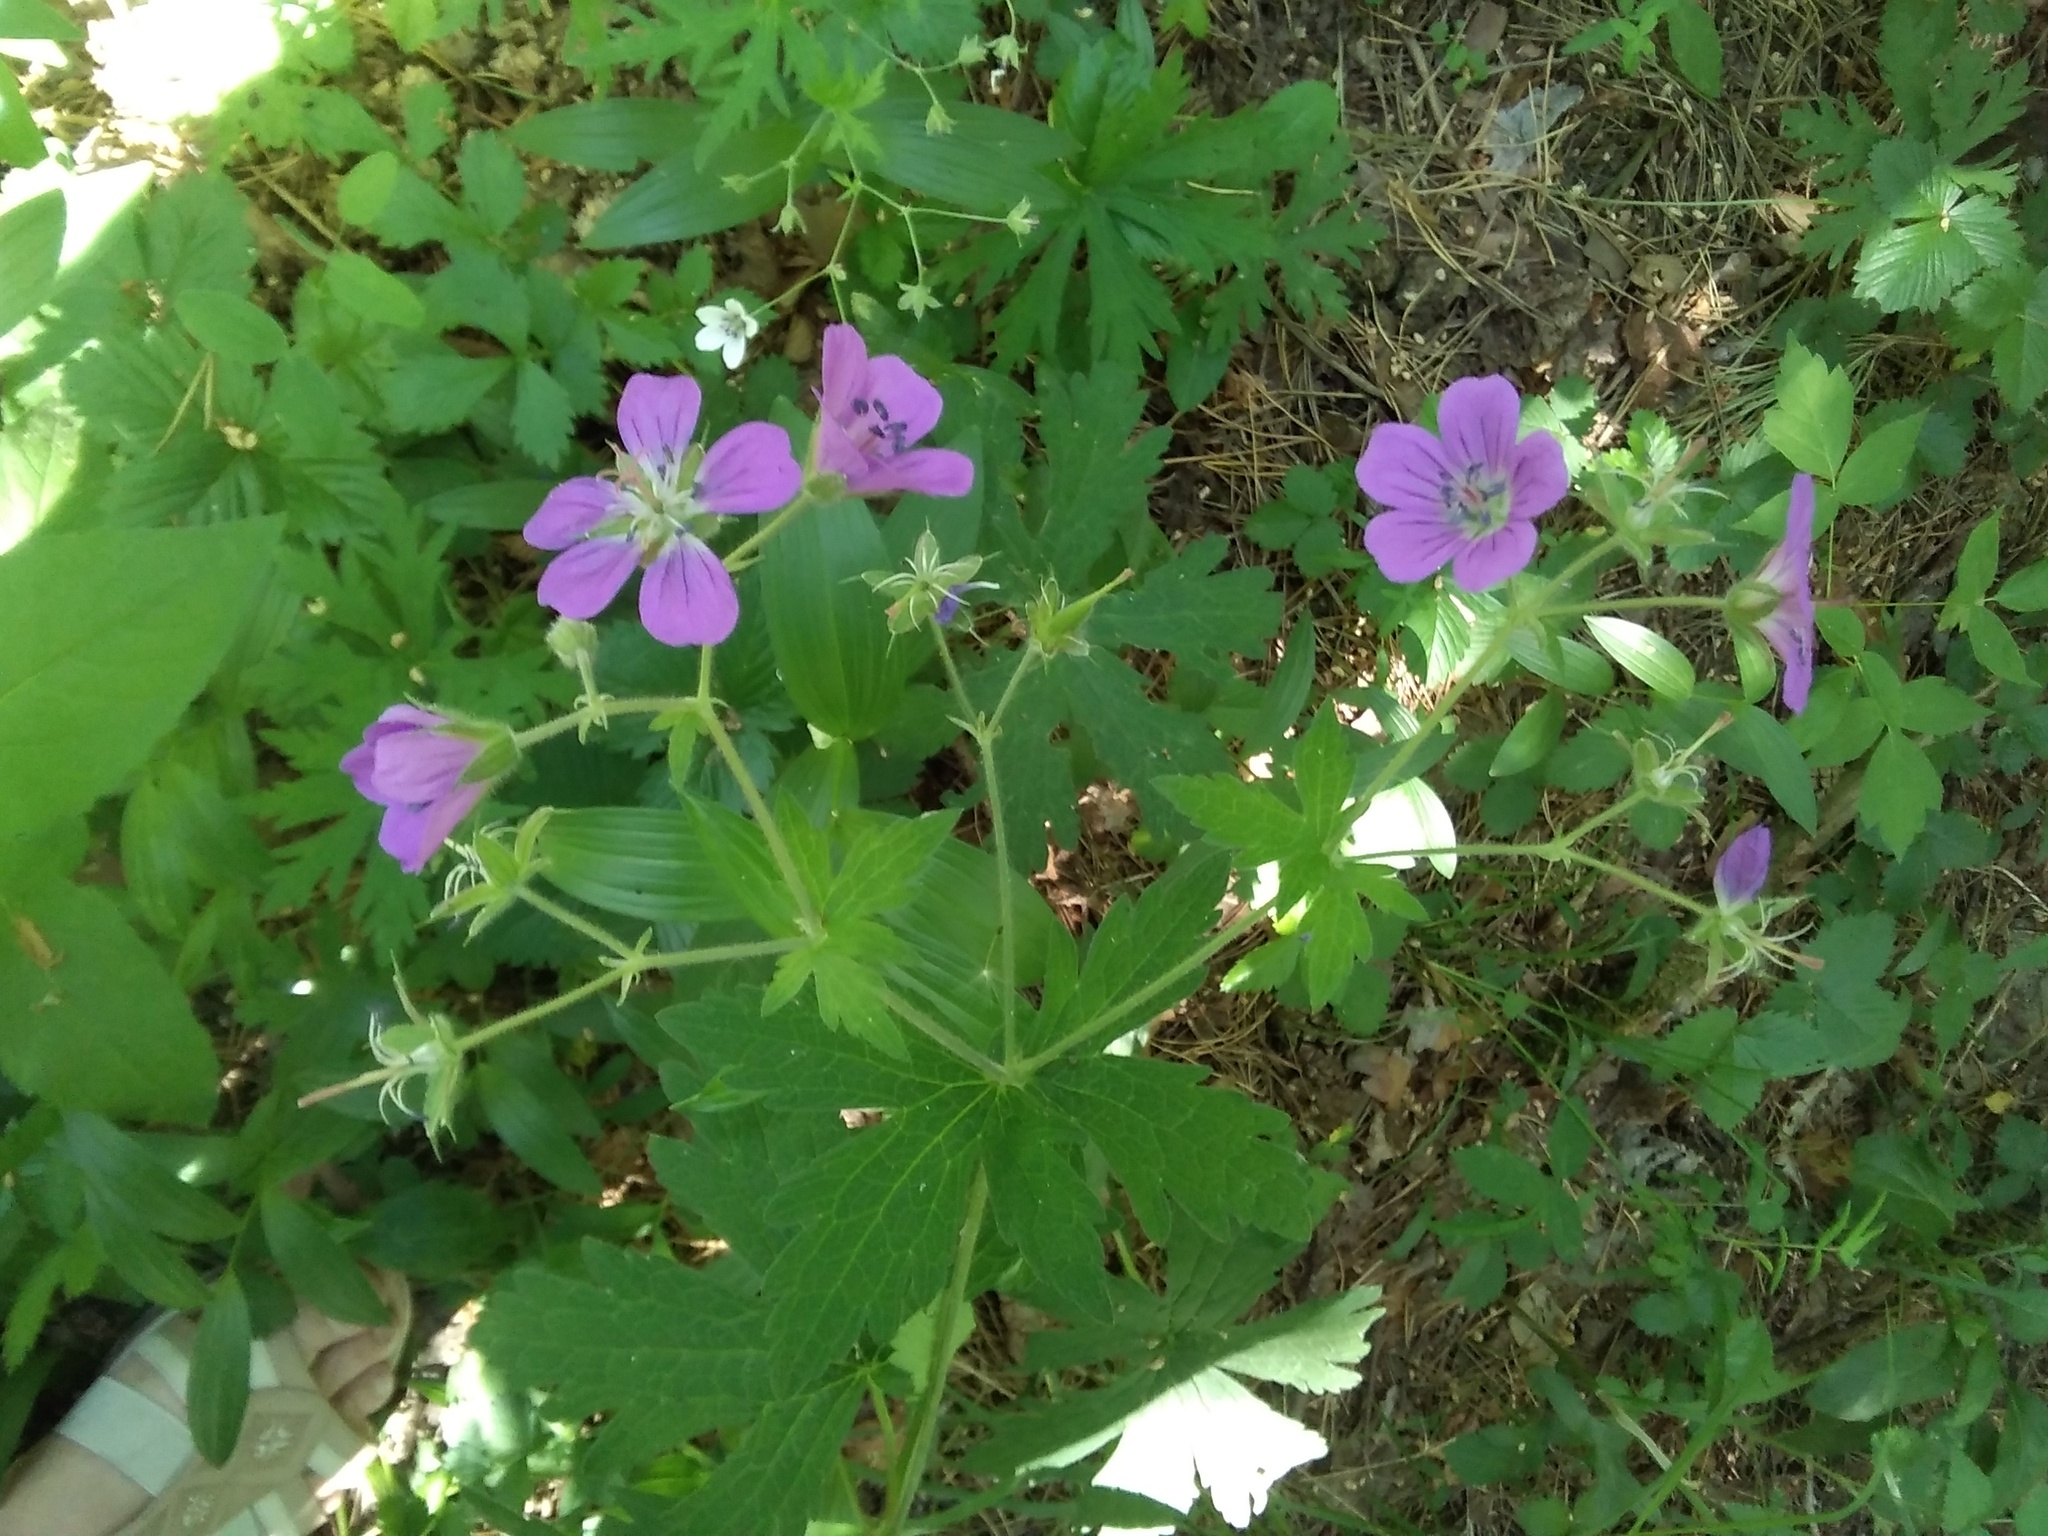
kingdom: Plantae
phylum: Tracheophyta
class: Magnoliopsida
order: Geraniales
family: Geraniaceae
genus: Geranium
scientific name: Geranium sylvaticum
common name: Wood crane's-bill
